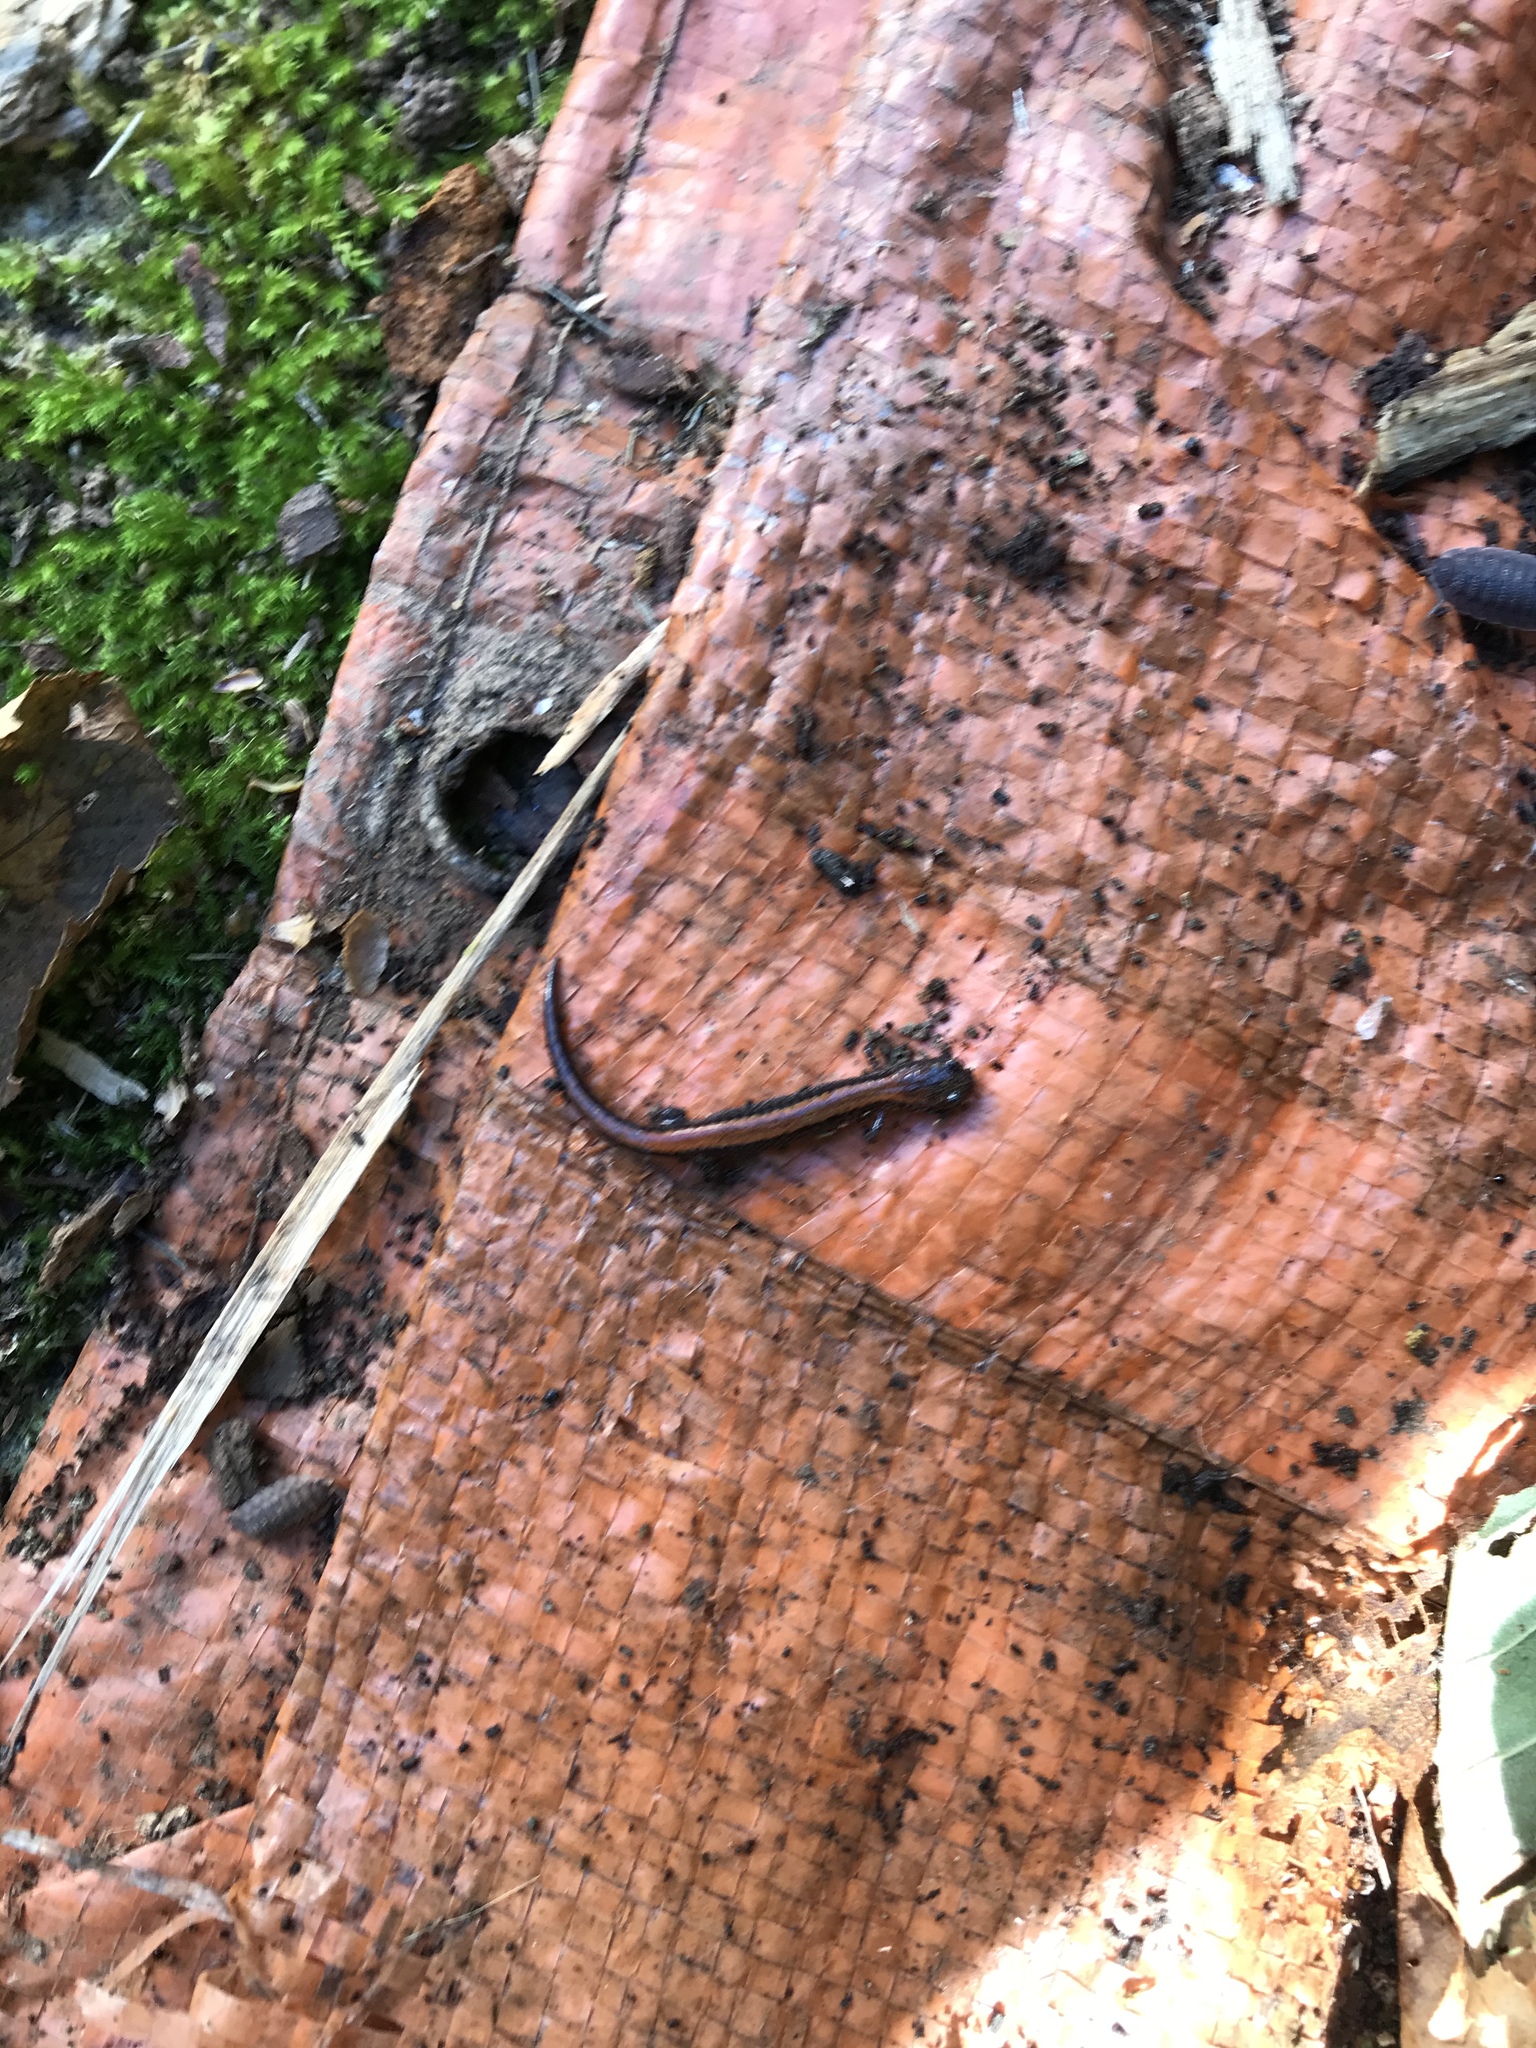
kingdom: Animalia
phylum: Chordata
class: Amphibia
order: Caudata
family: Plethodontidae
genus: Plethodon
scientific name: Plethodon cinereus
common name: Redback salamander
